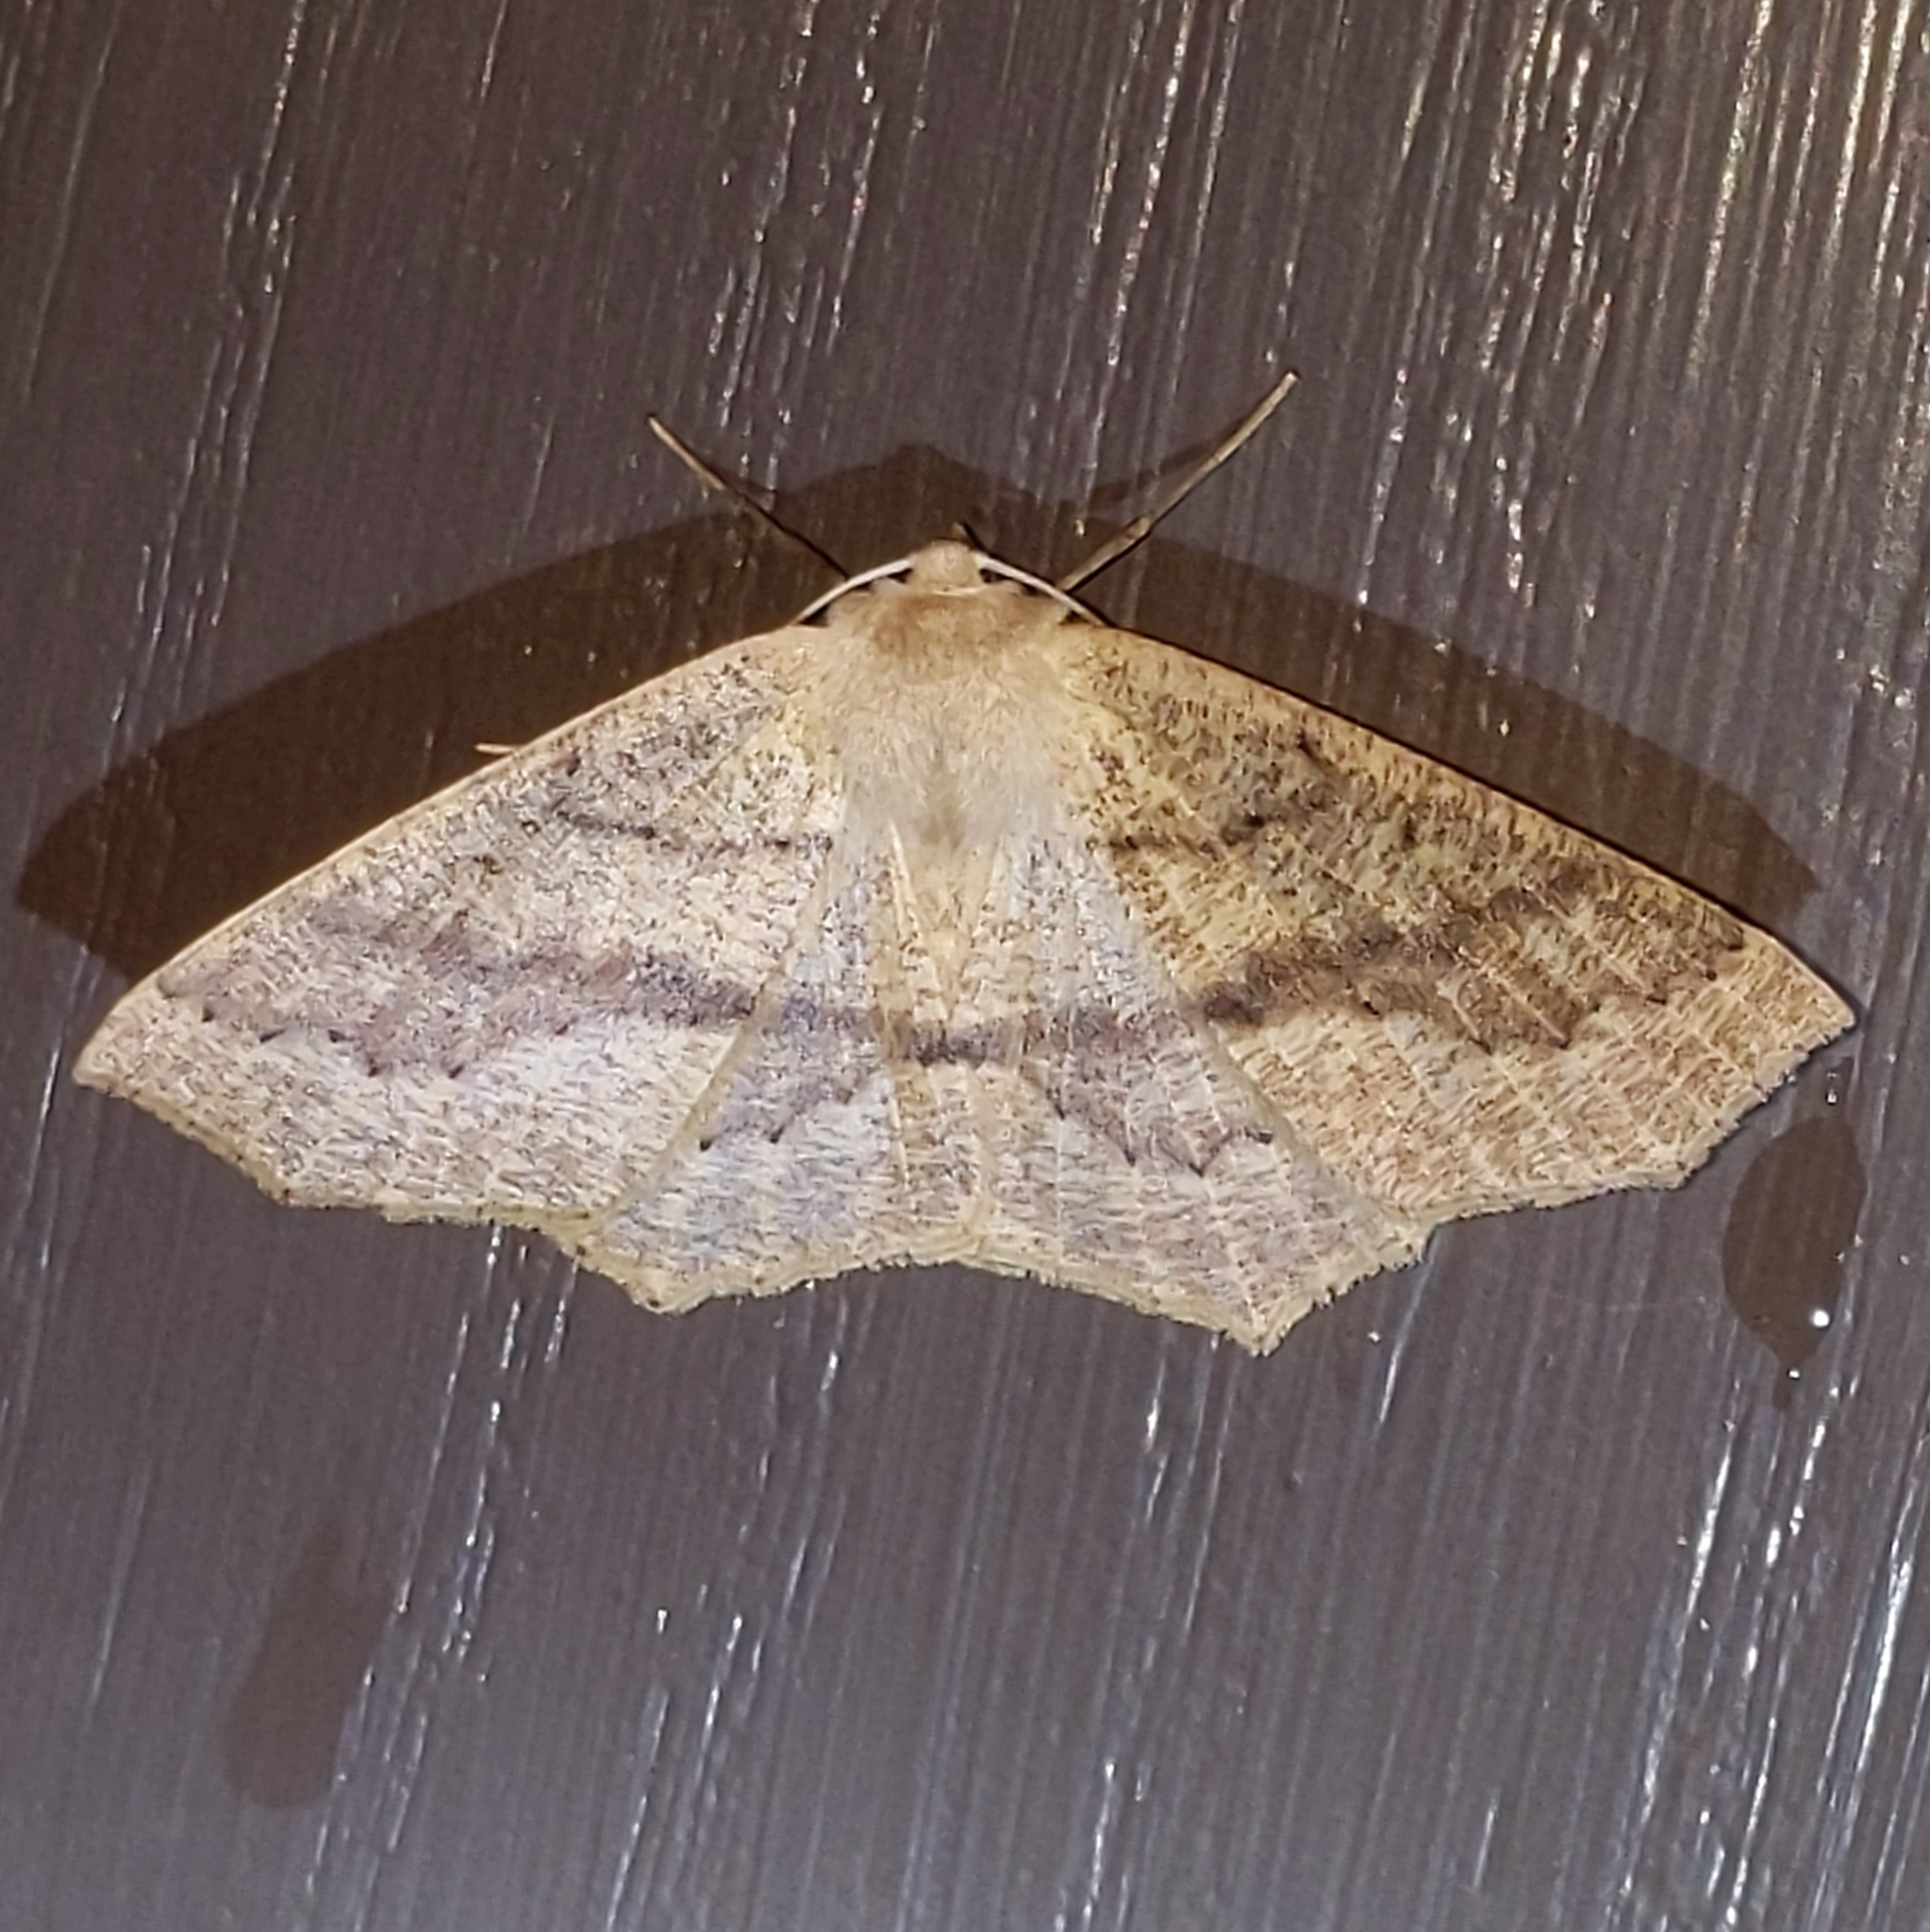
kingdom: Animalia
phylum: Arthropoda
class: Insecta
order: Lepidoptera
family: Geometridae
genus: Sabulodes
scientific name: Sabulodes aegrotata
